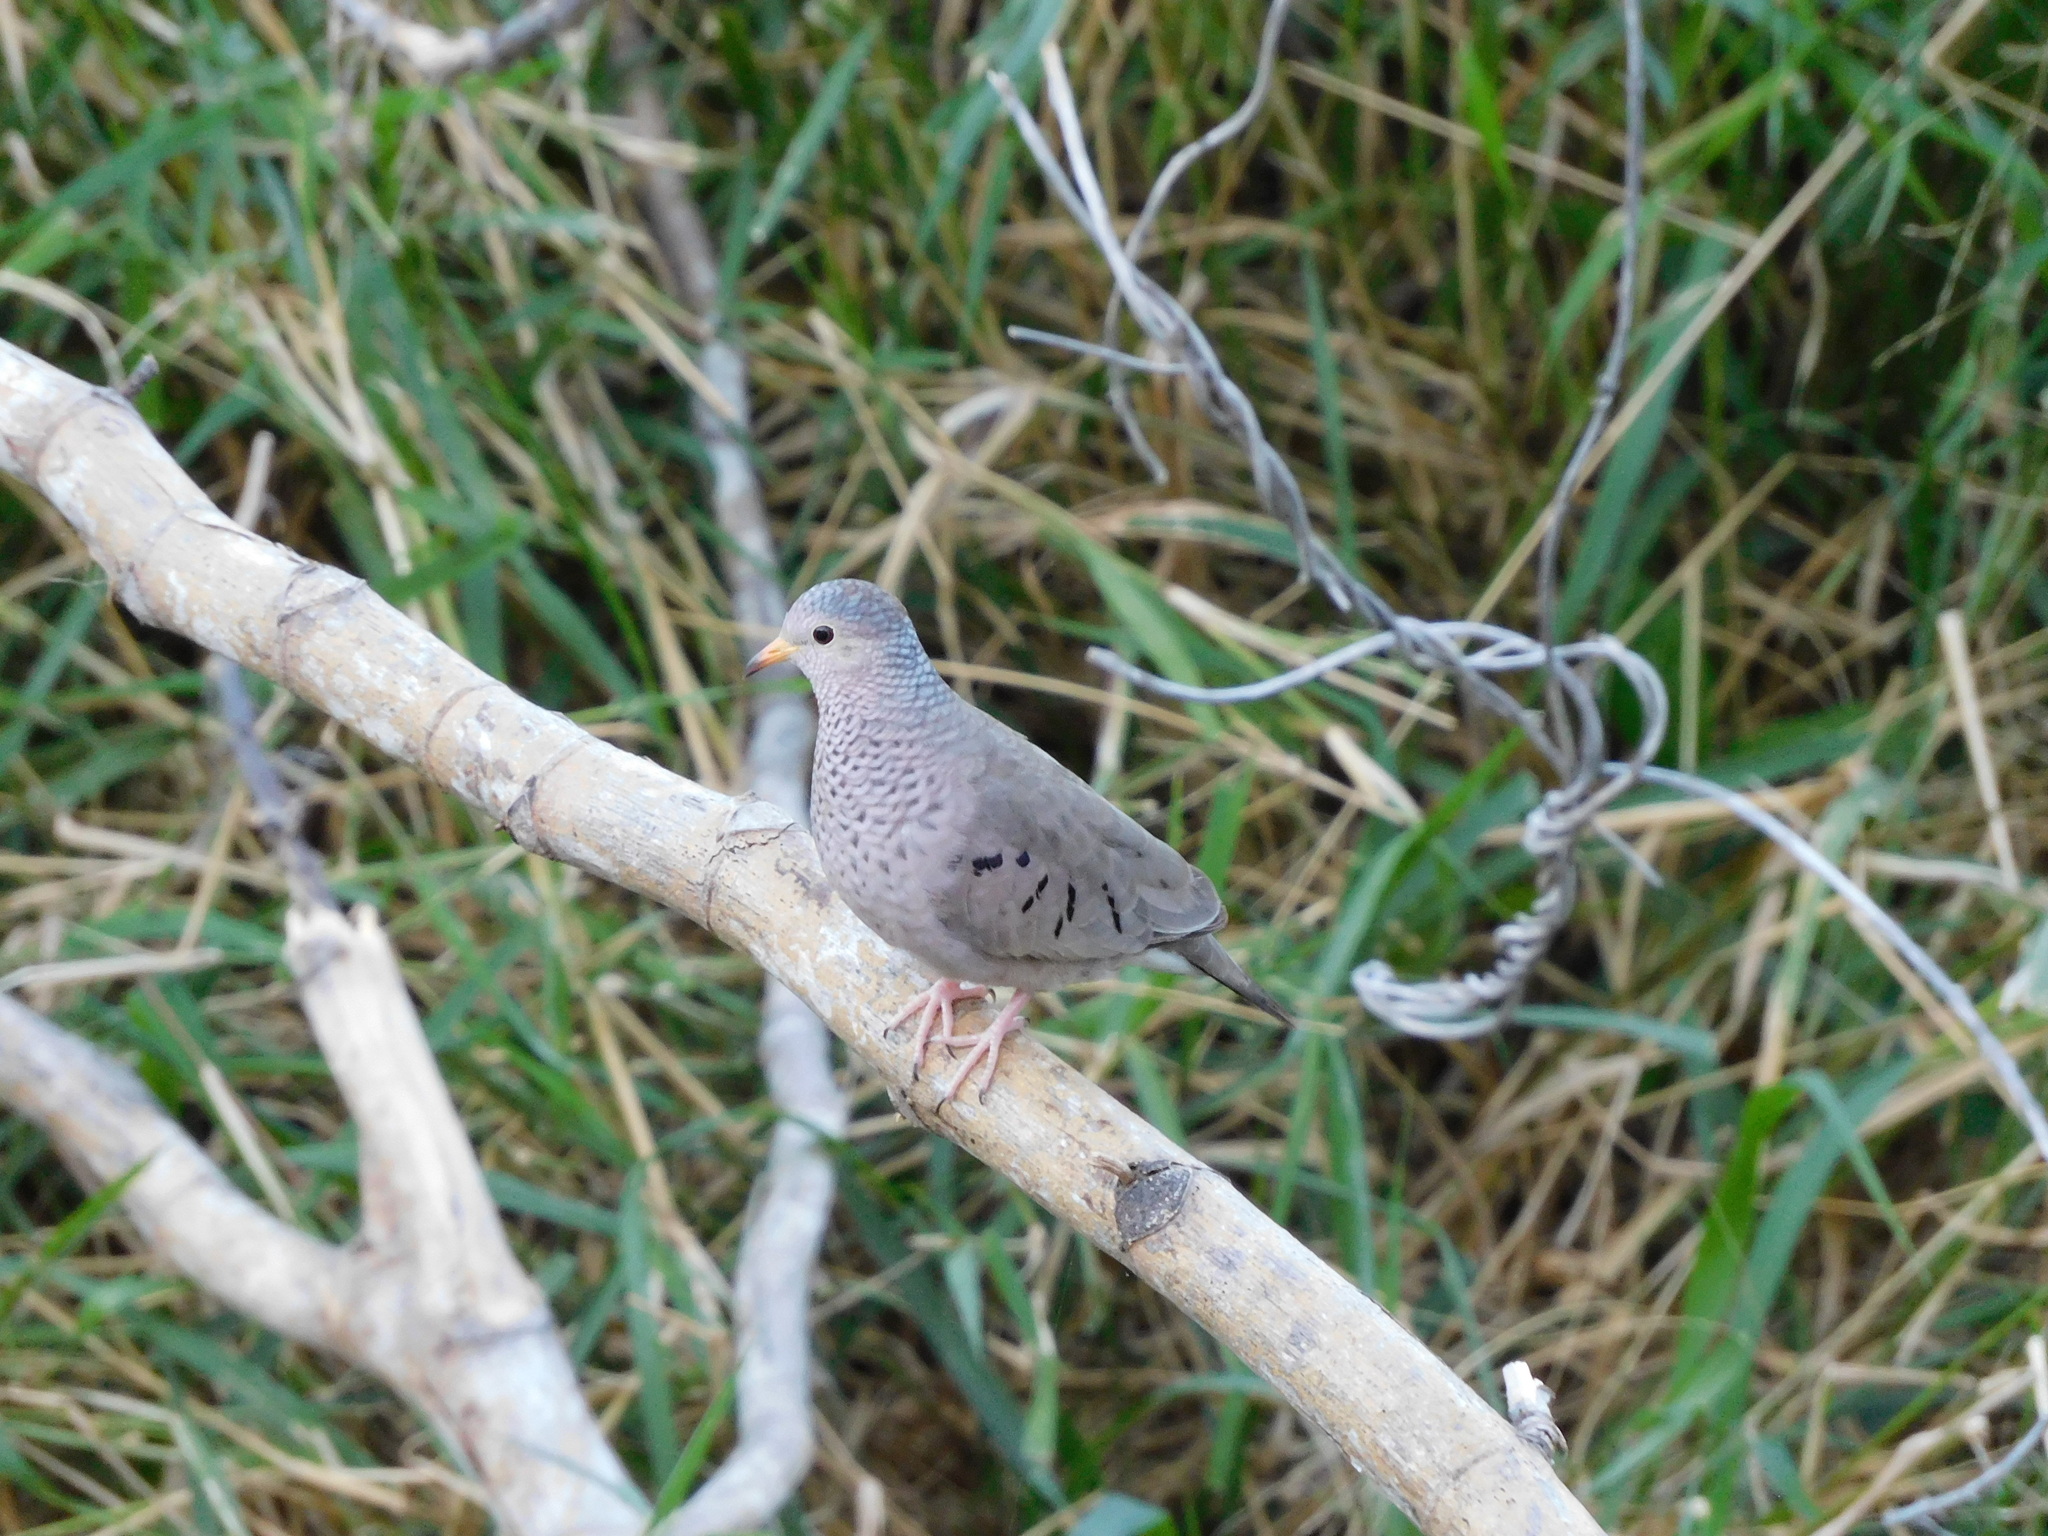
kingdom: Animalia
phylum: Chordata
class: Aves
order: Columbiformes
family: Columbidae
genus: Columbina
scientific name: Columbina passerina
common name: Common ground-dove
